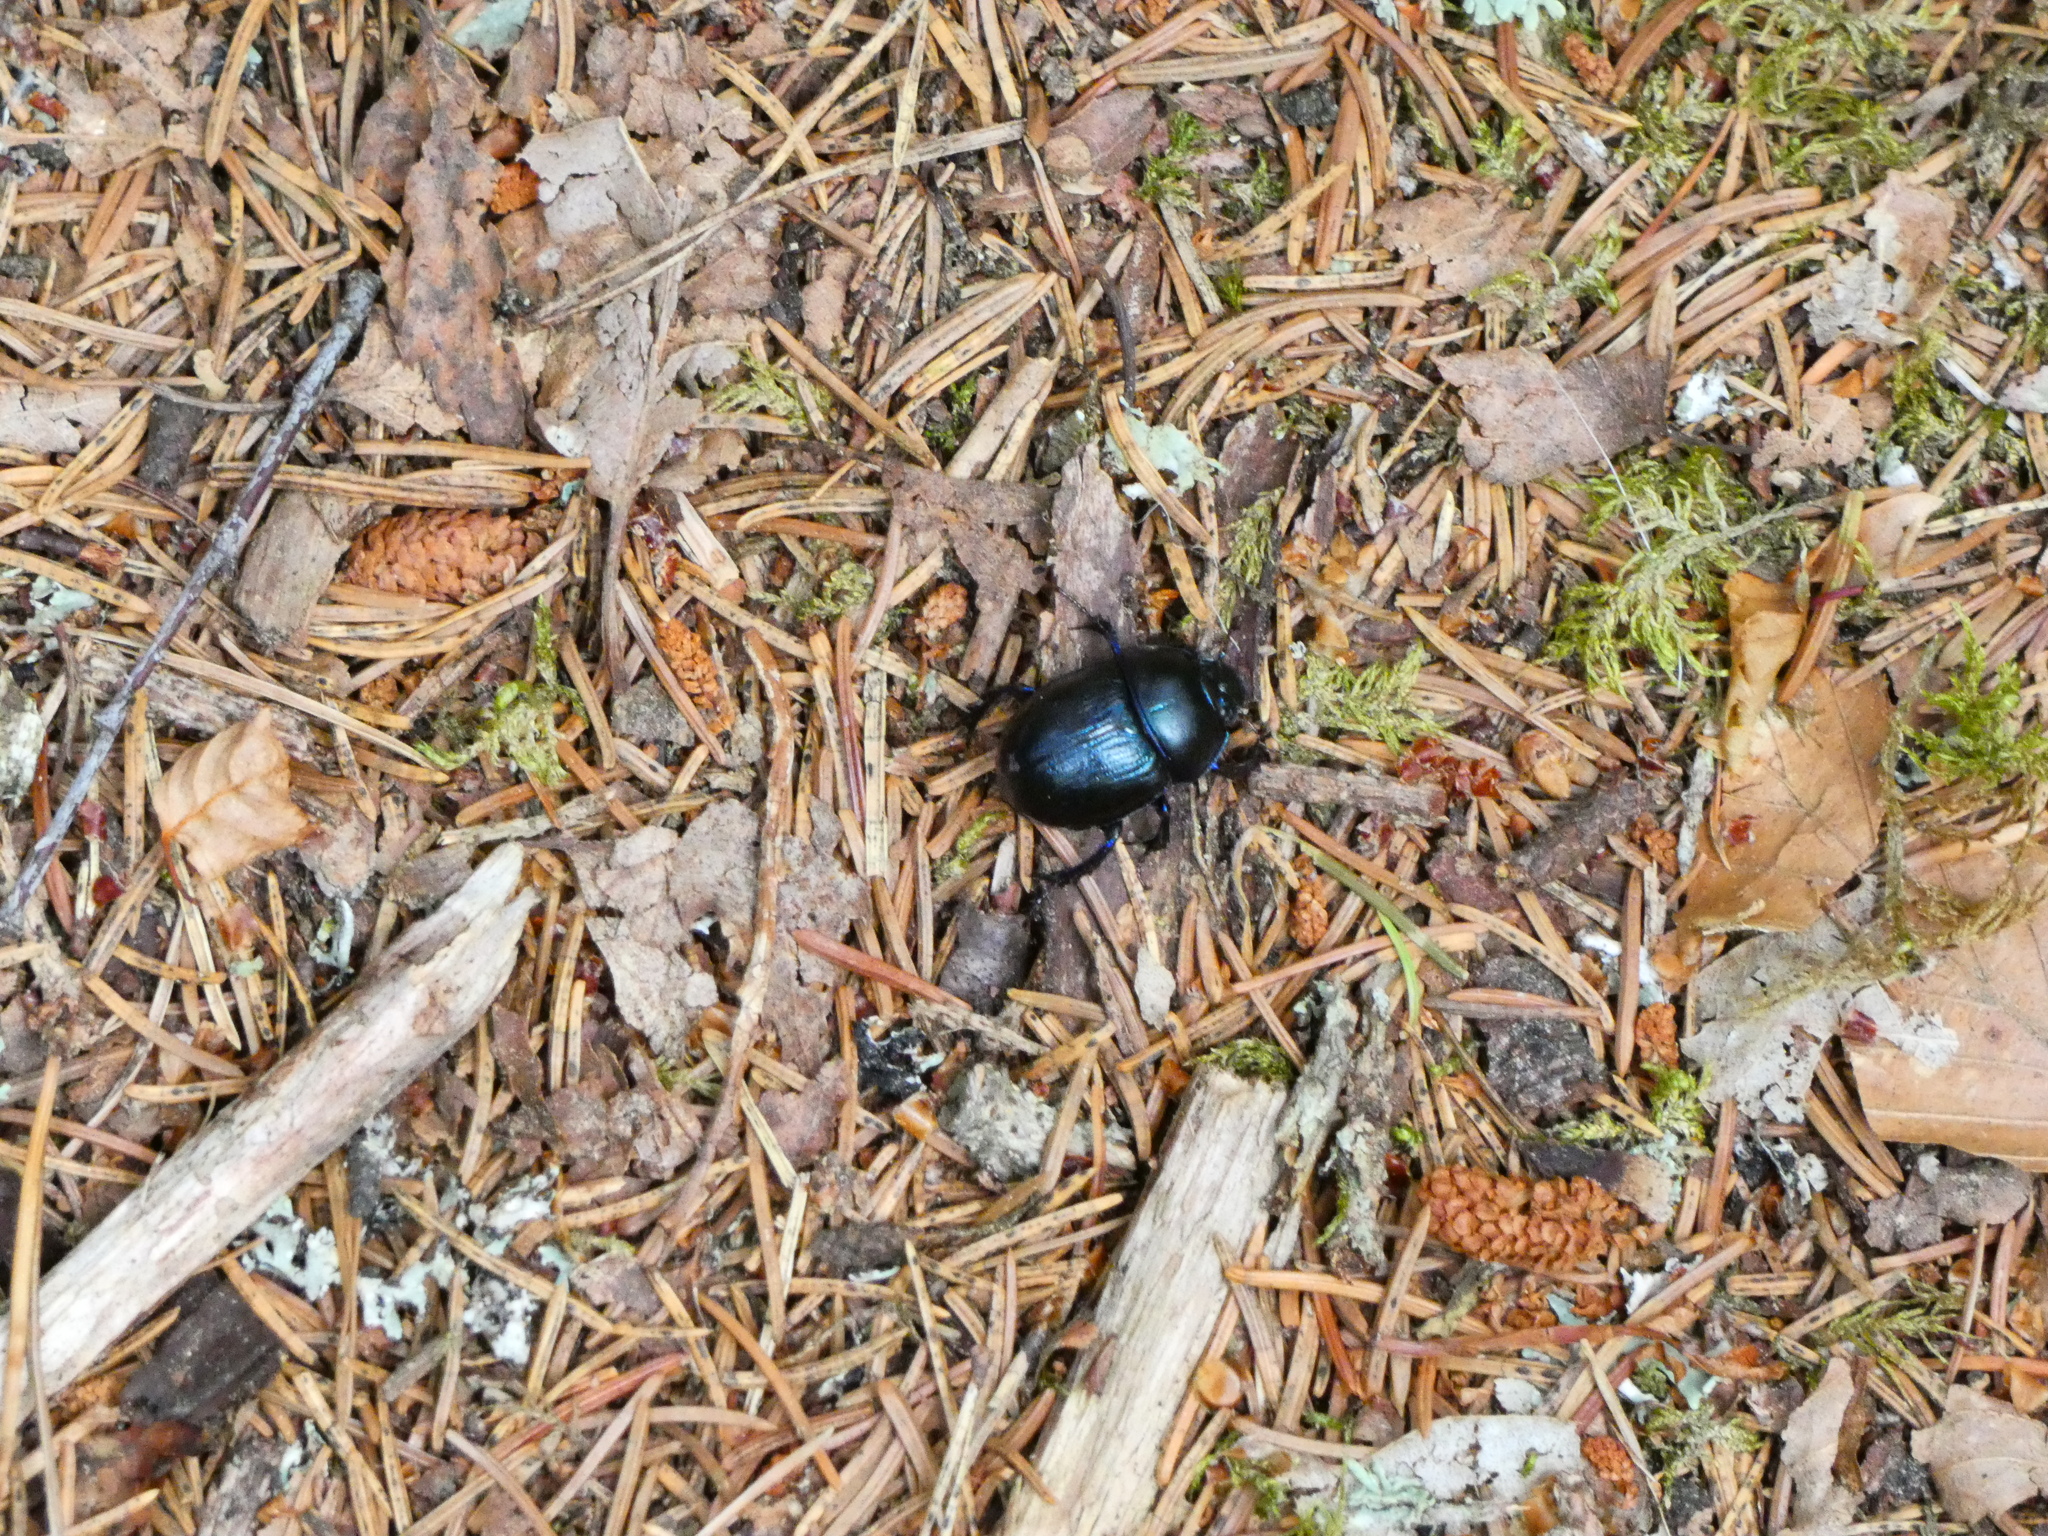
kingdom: Animalia
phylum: Arthropoda
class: Insecta
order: Coleoptera
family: Geotrupidae
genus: Anoplotrupes
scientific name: Anoplotrupes stercorosus
